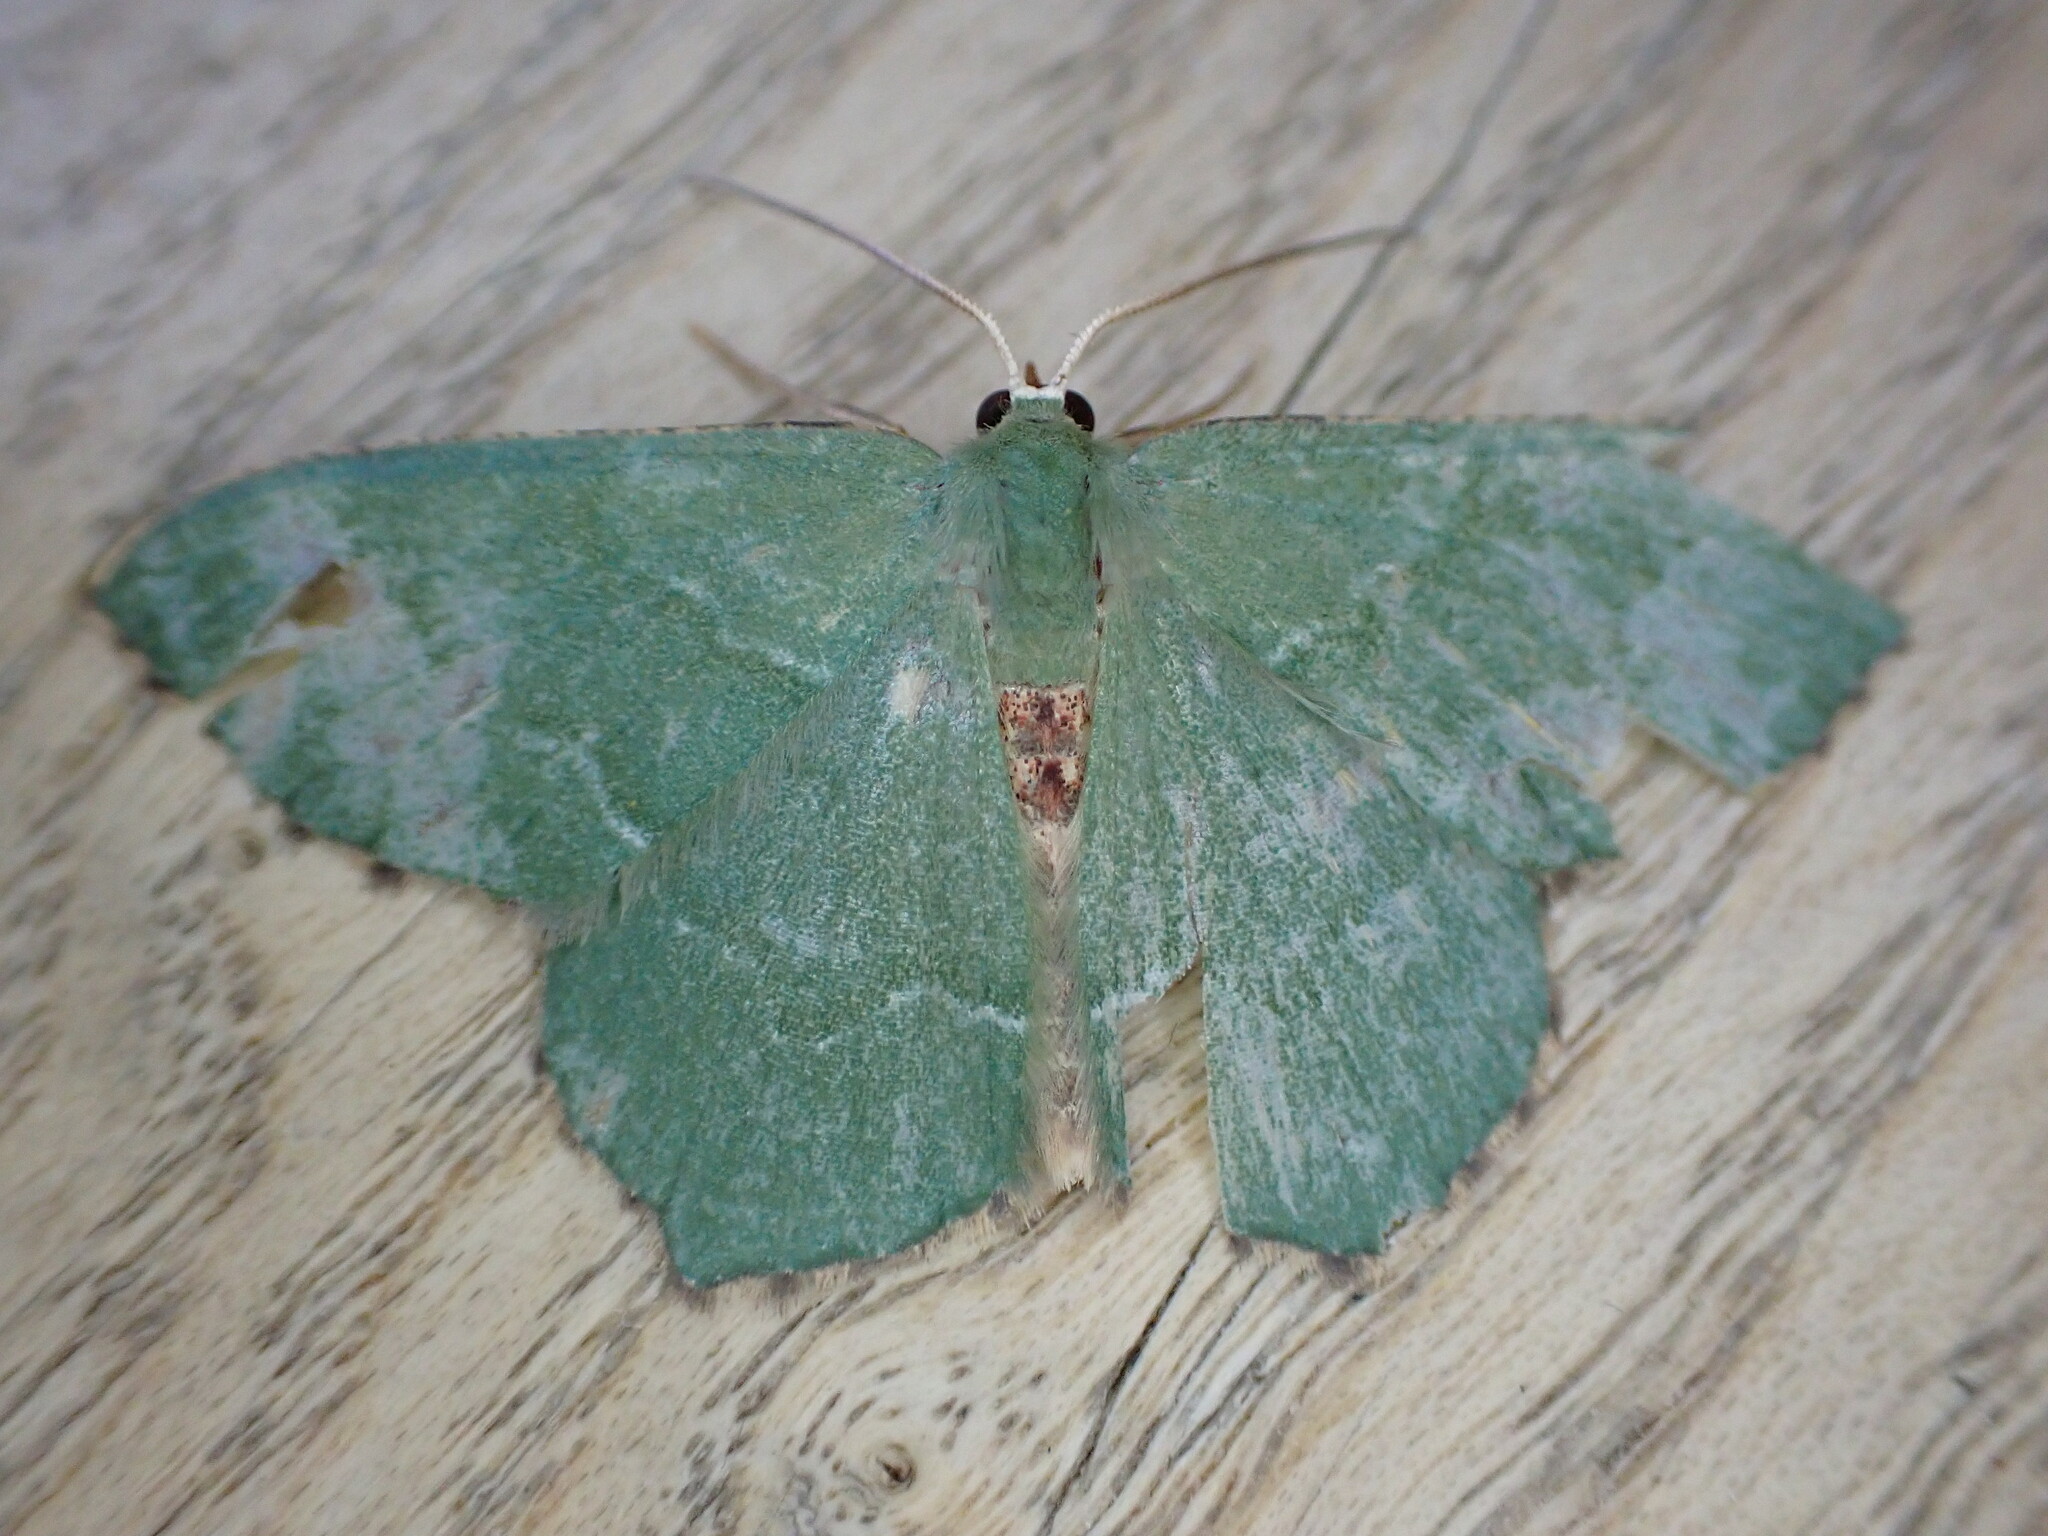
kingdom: Animalia
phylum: Arthropoda
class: Insecta
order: Lepidoptera
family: Geometridae
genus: Hemithea
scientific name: Hemithea aestivaria
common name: Common emerald
